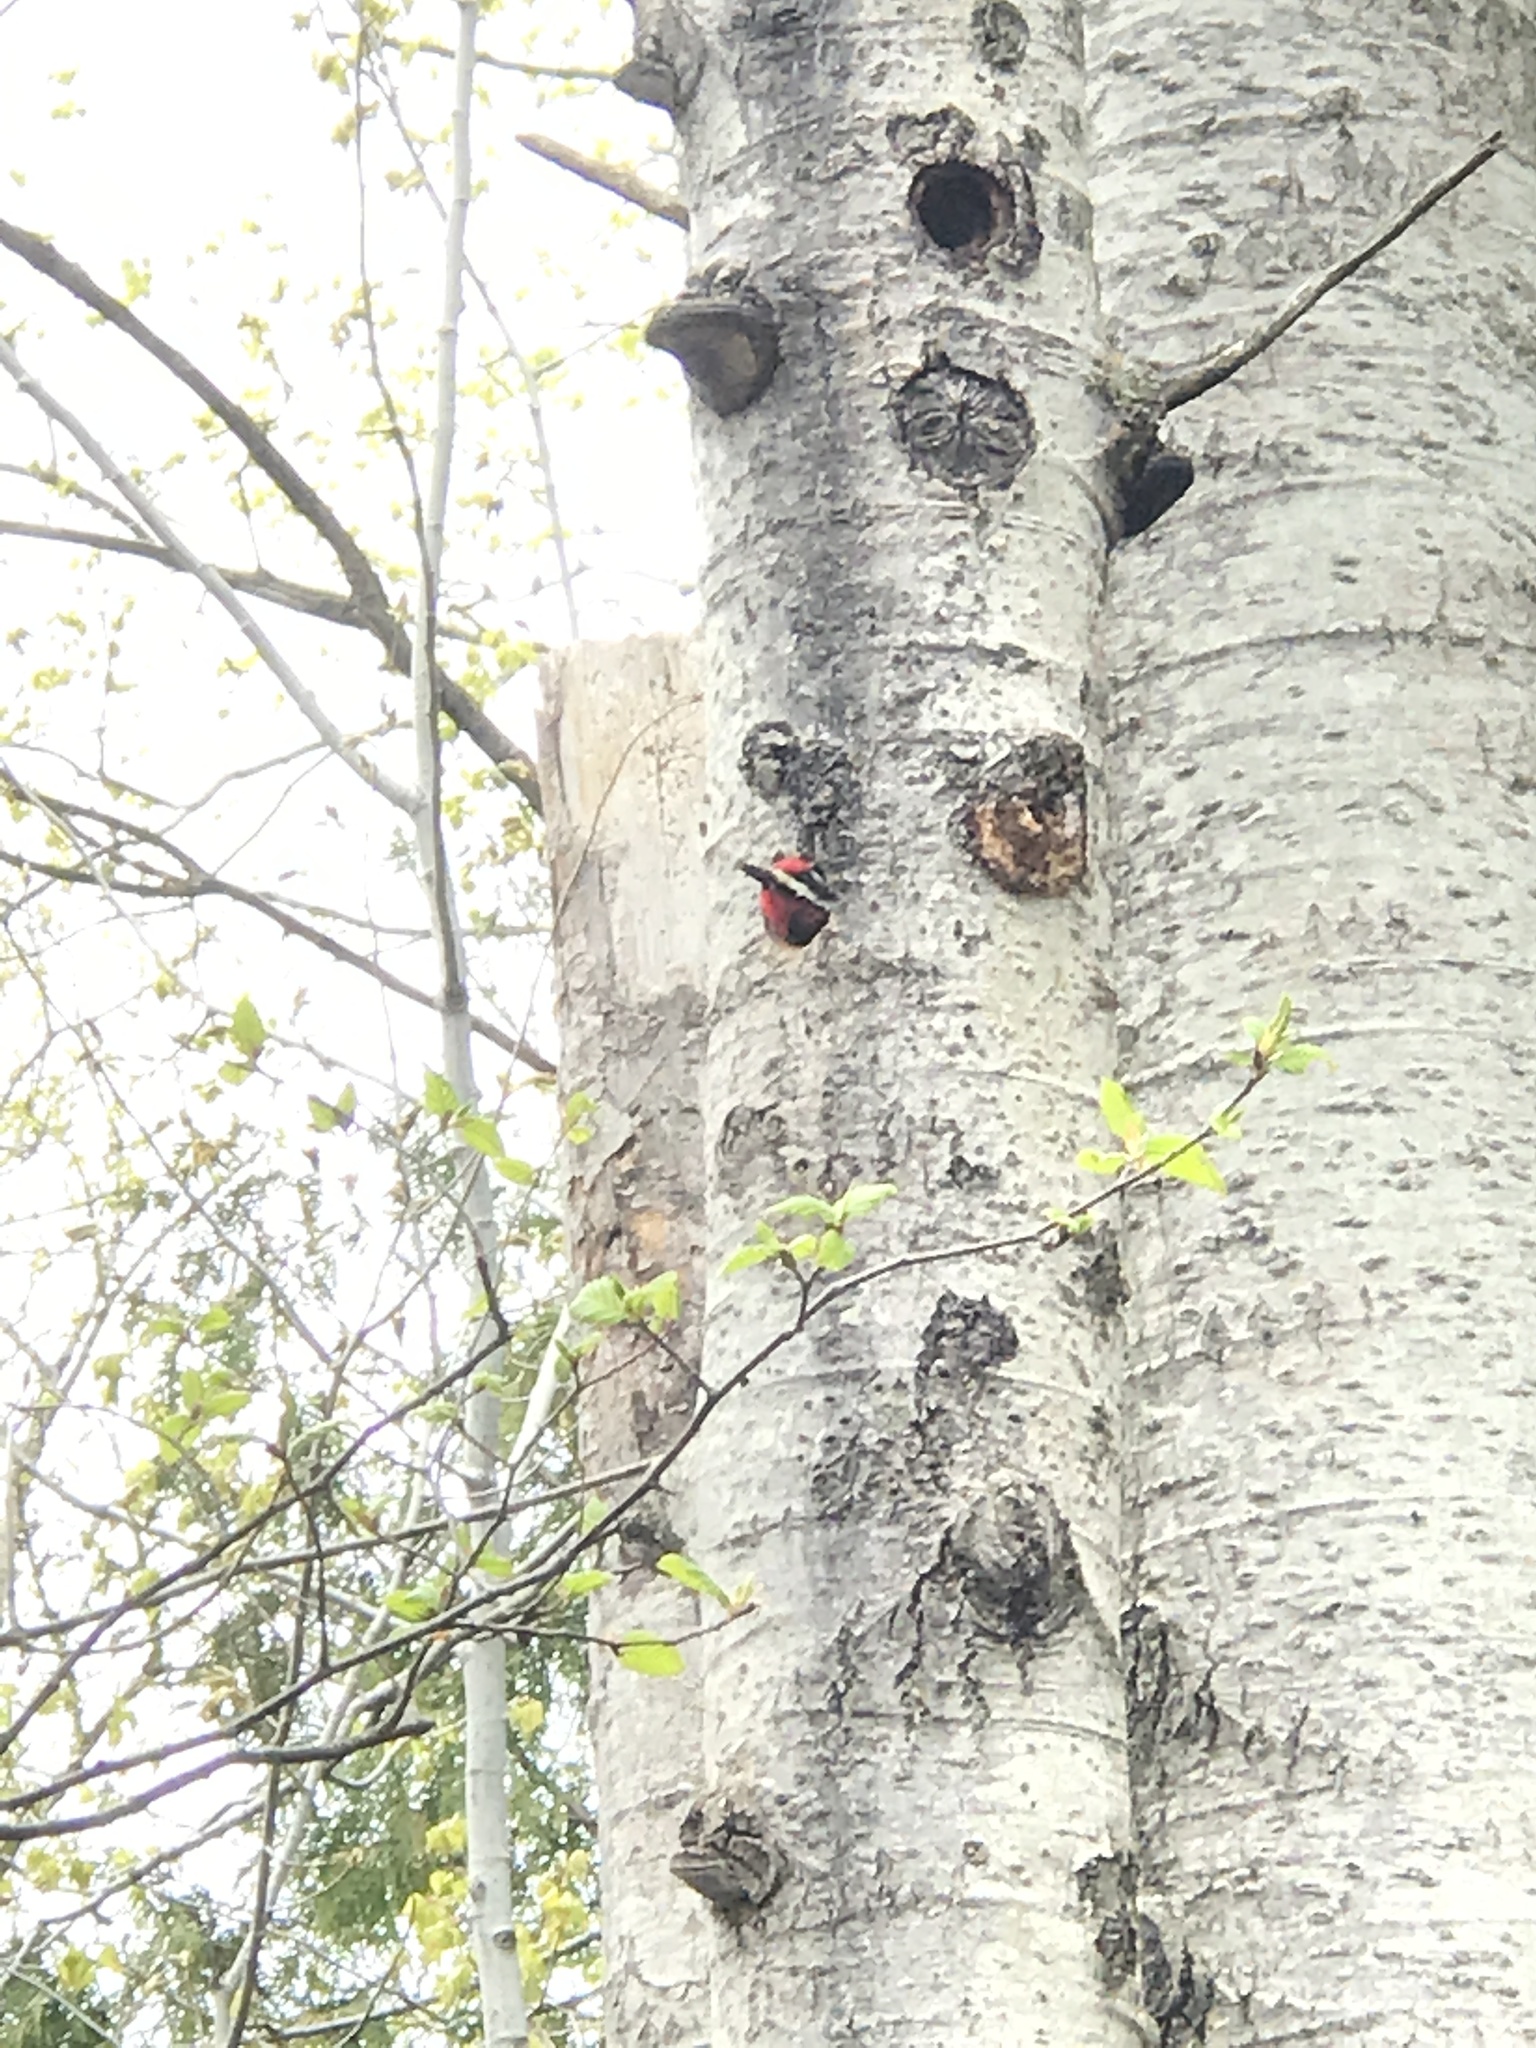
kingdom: Animalia
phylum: Chordata
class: Aves
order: Piciformes
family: Picidae
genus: Sphyrapicus
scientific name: Sphyrapicus varius
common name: Yellow-bellied sapsucker
